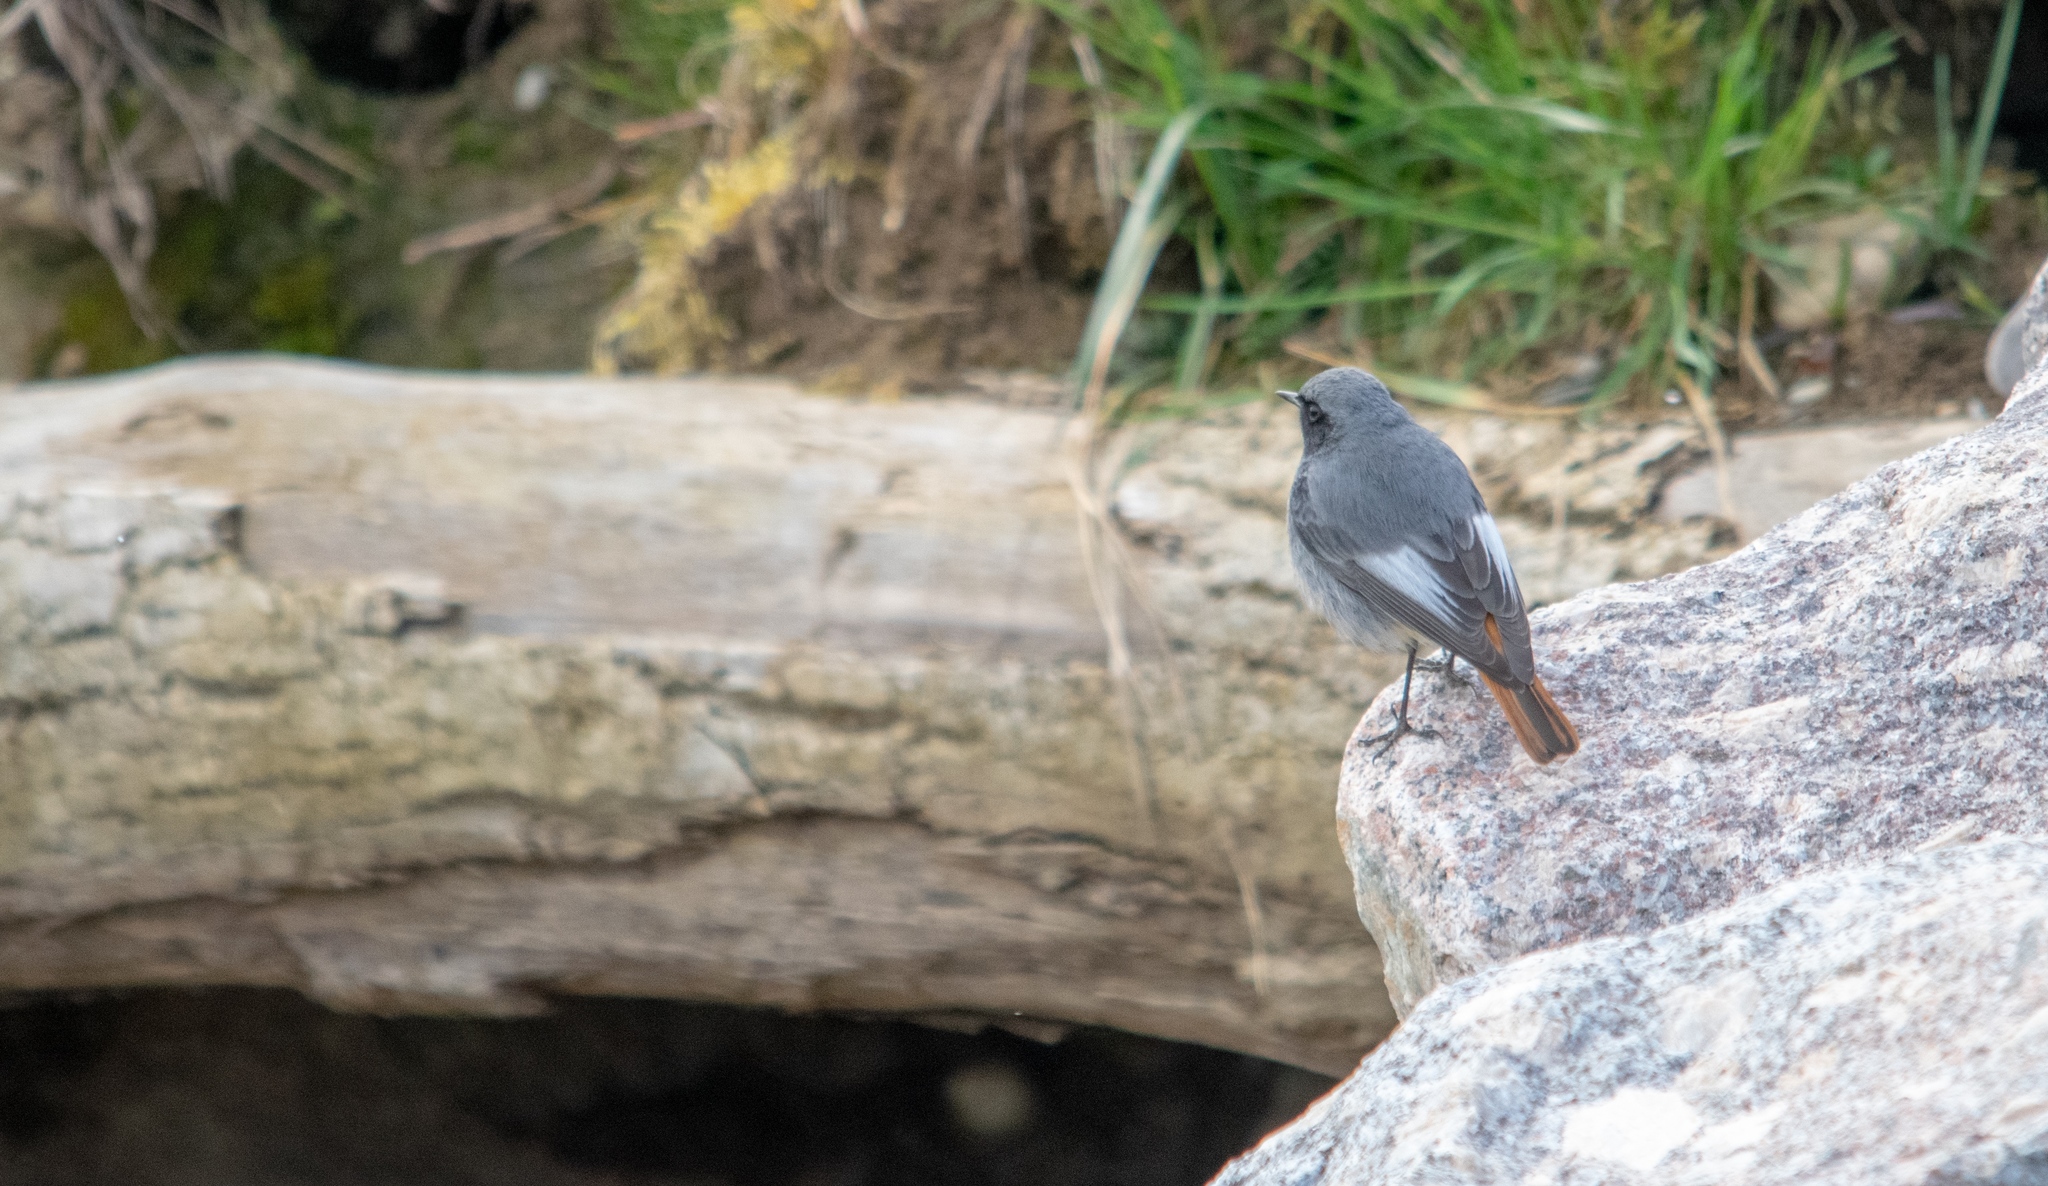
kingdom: Animalia
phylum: Chordata
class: Aves
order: Passeriformes
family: Muscicapidae
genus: Phoenicurus
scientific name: Phoenicurus ochruros
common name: Black redstart
